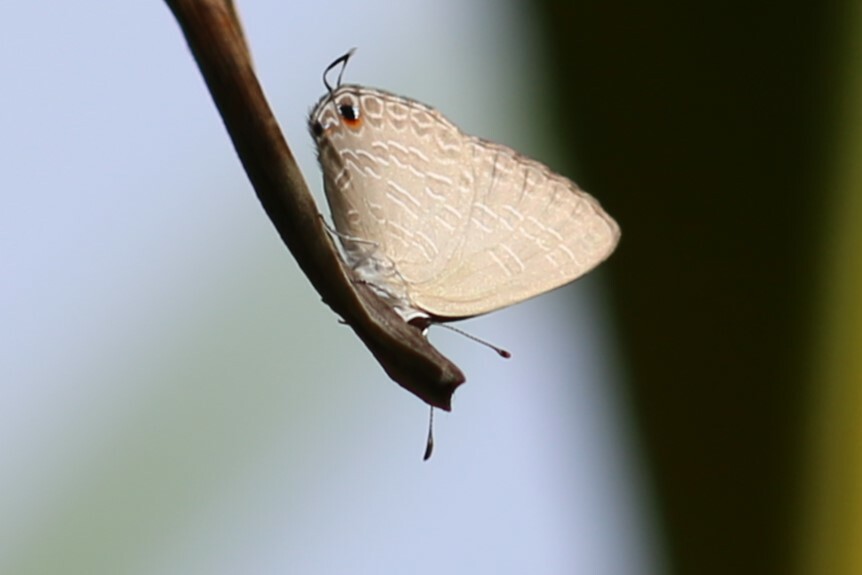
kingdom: Animalia
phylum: Arthropoda
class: Insecta
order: Lepidoptera
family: Lycaenidae
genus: Jamides
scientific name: Jamides phaseli
